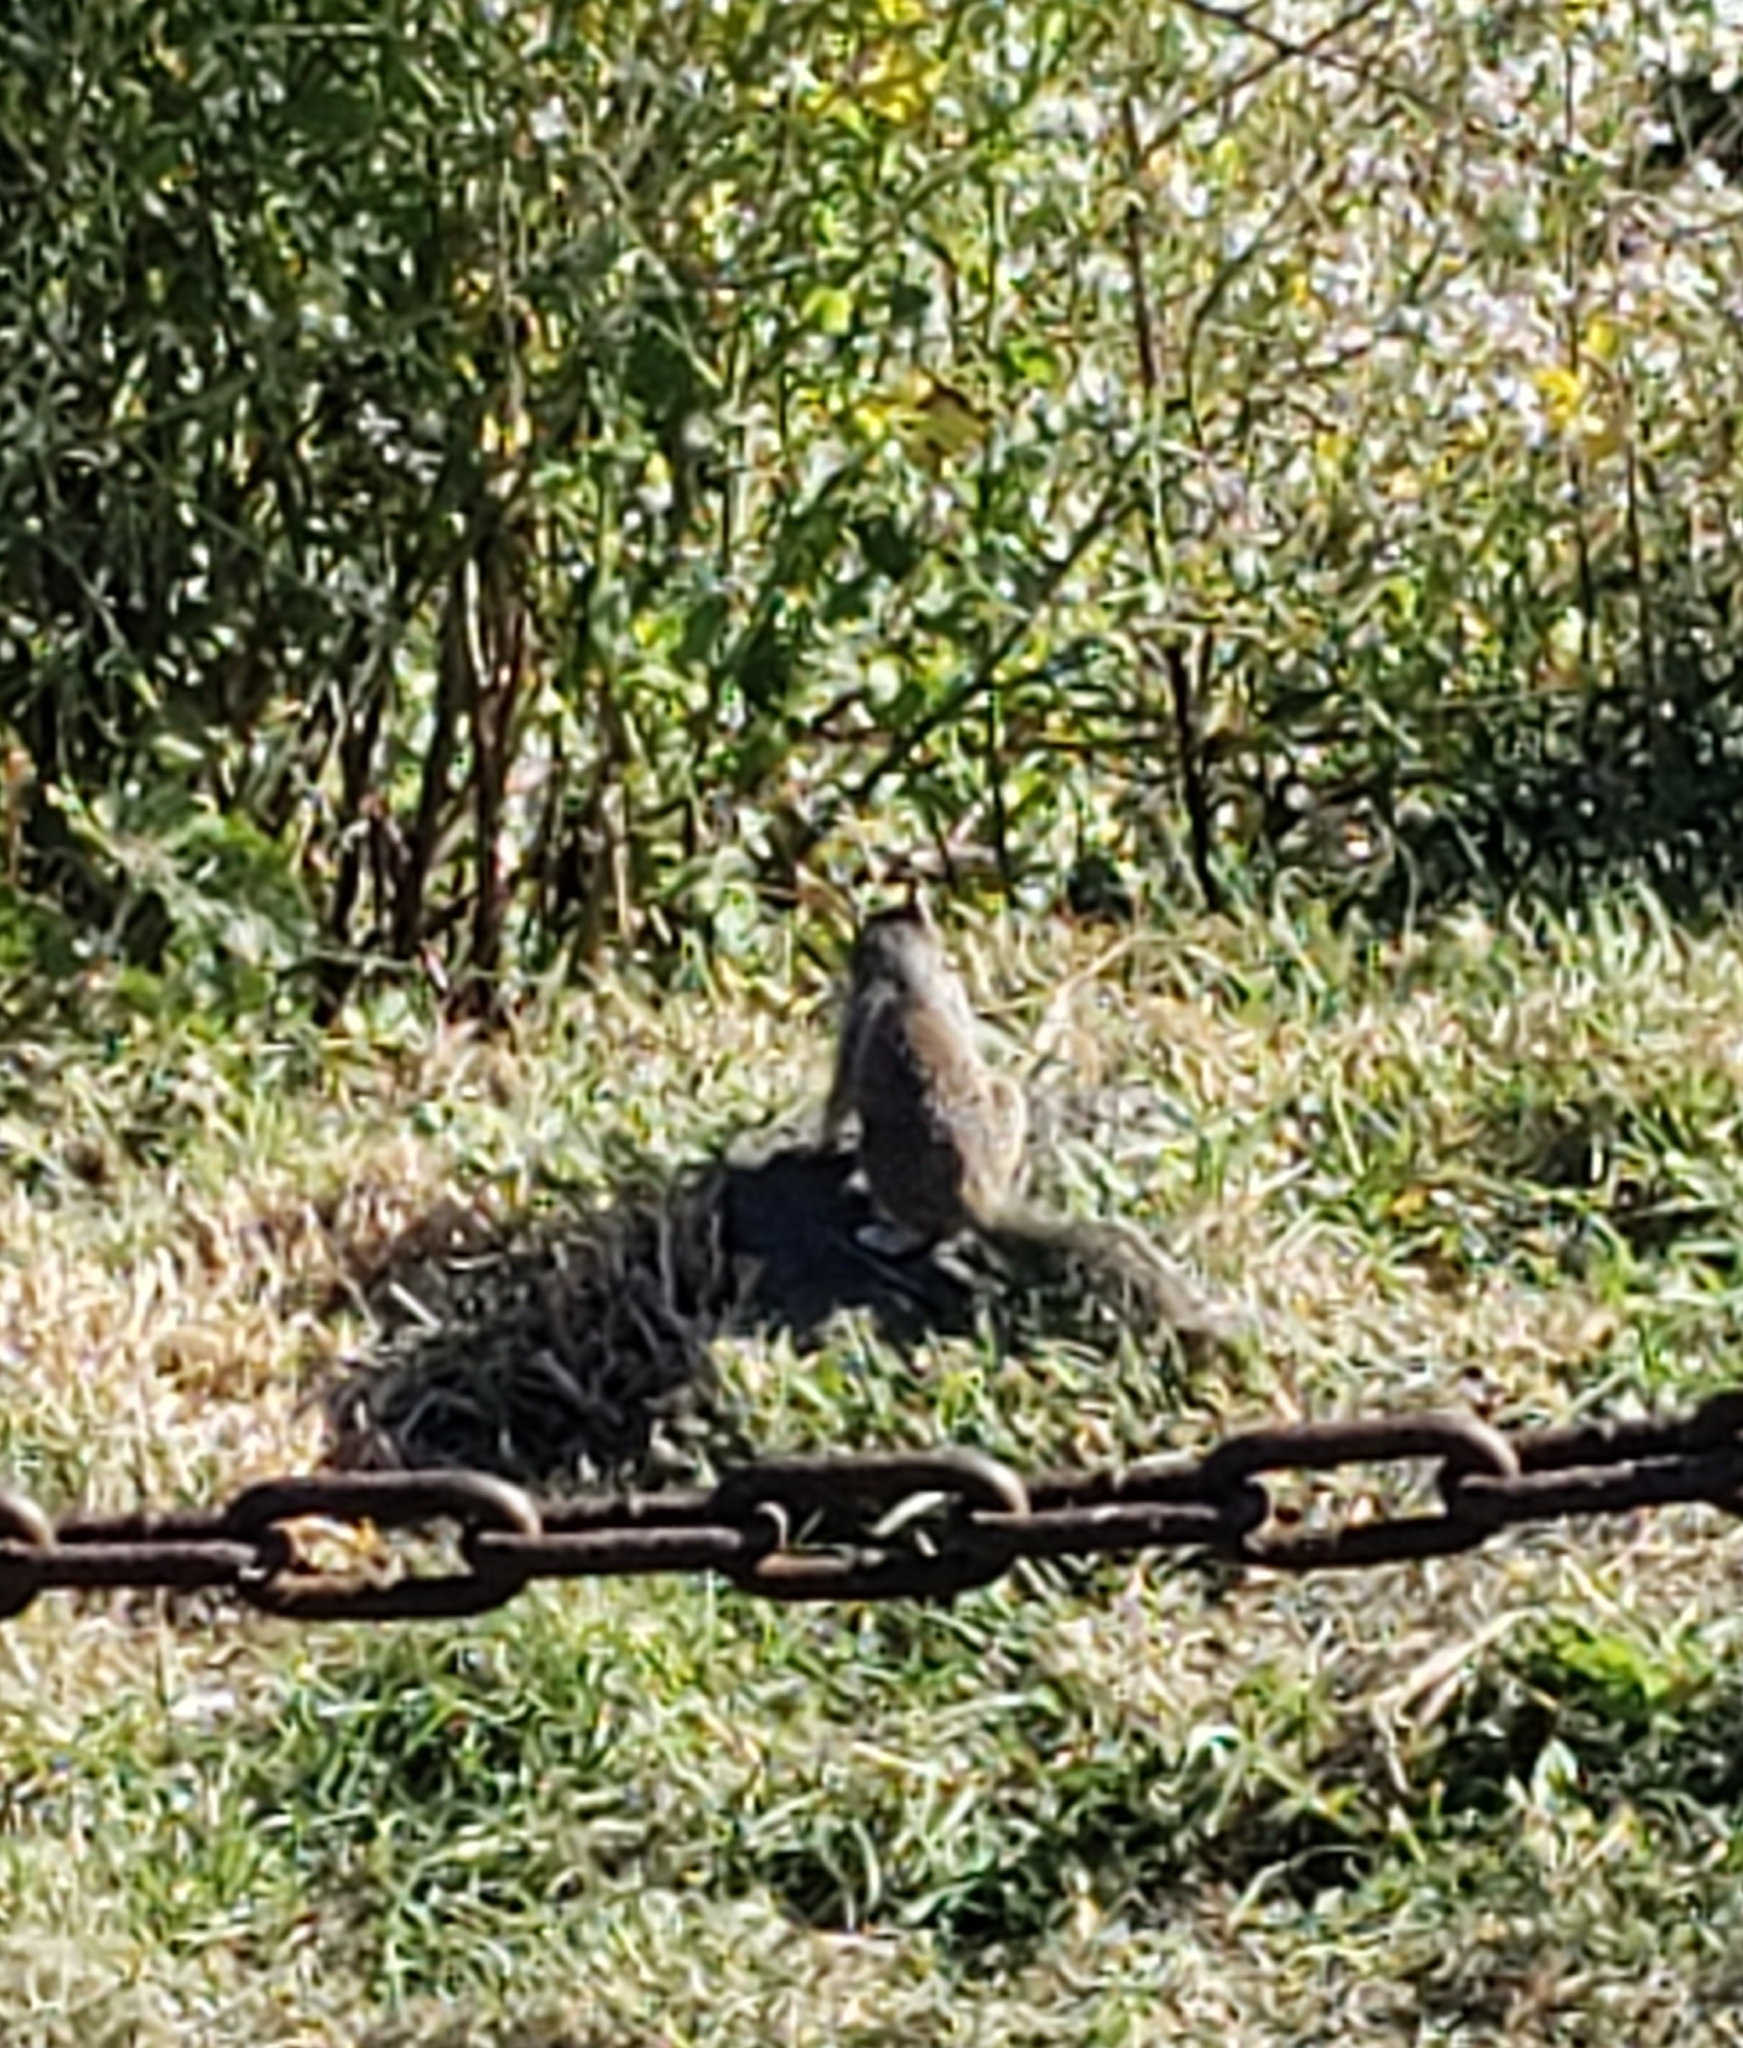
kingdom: Animalia
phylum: Chordata
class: Mammalia
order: Rodentia
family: Sciuridae
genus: Otospermophilus
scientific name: Otospermophilus beecheyi
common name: California ground squirrel
